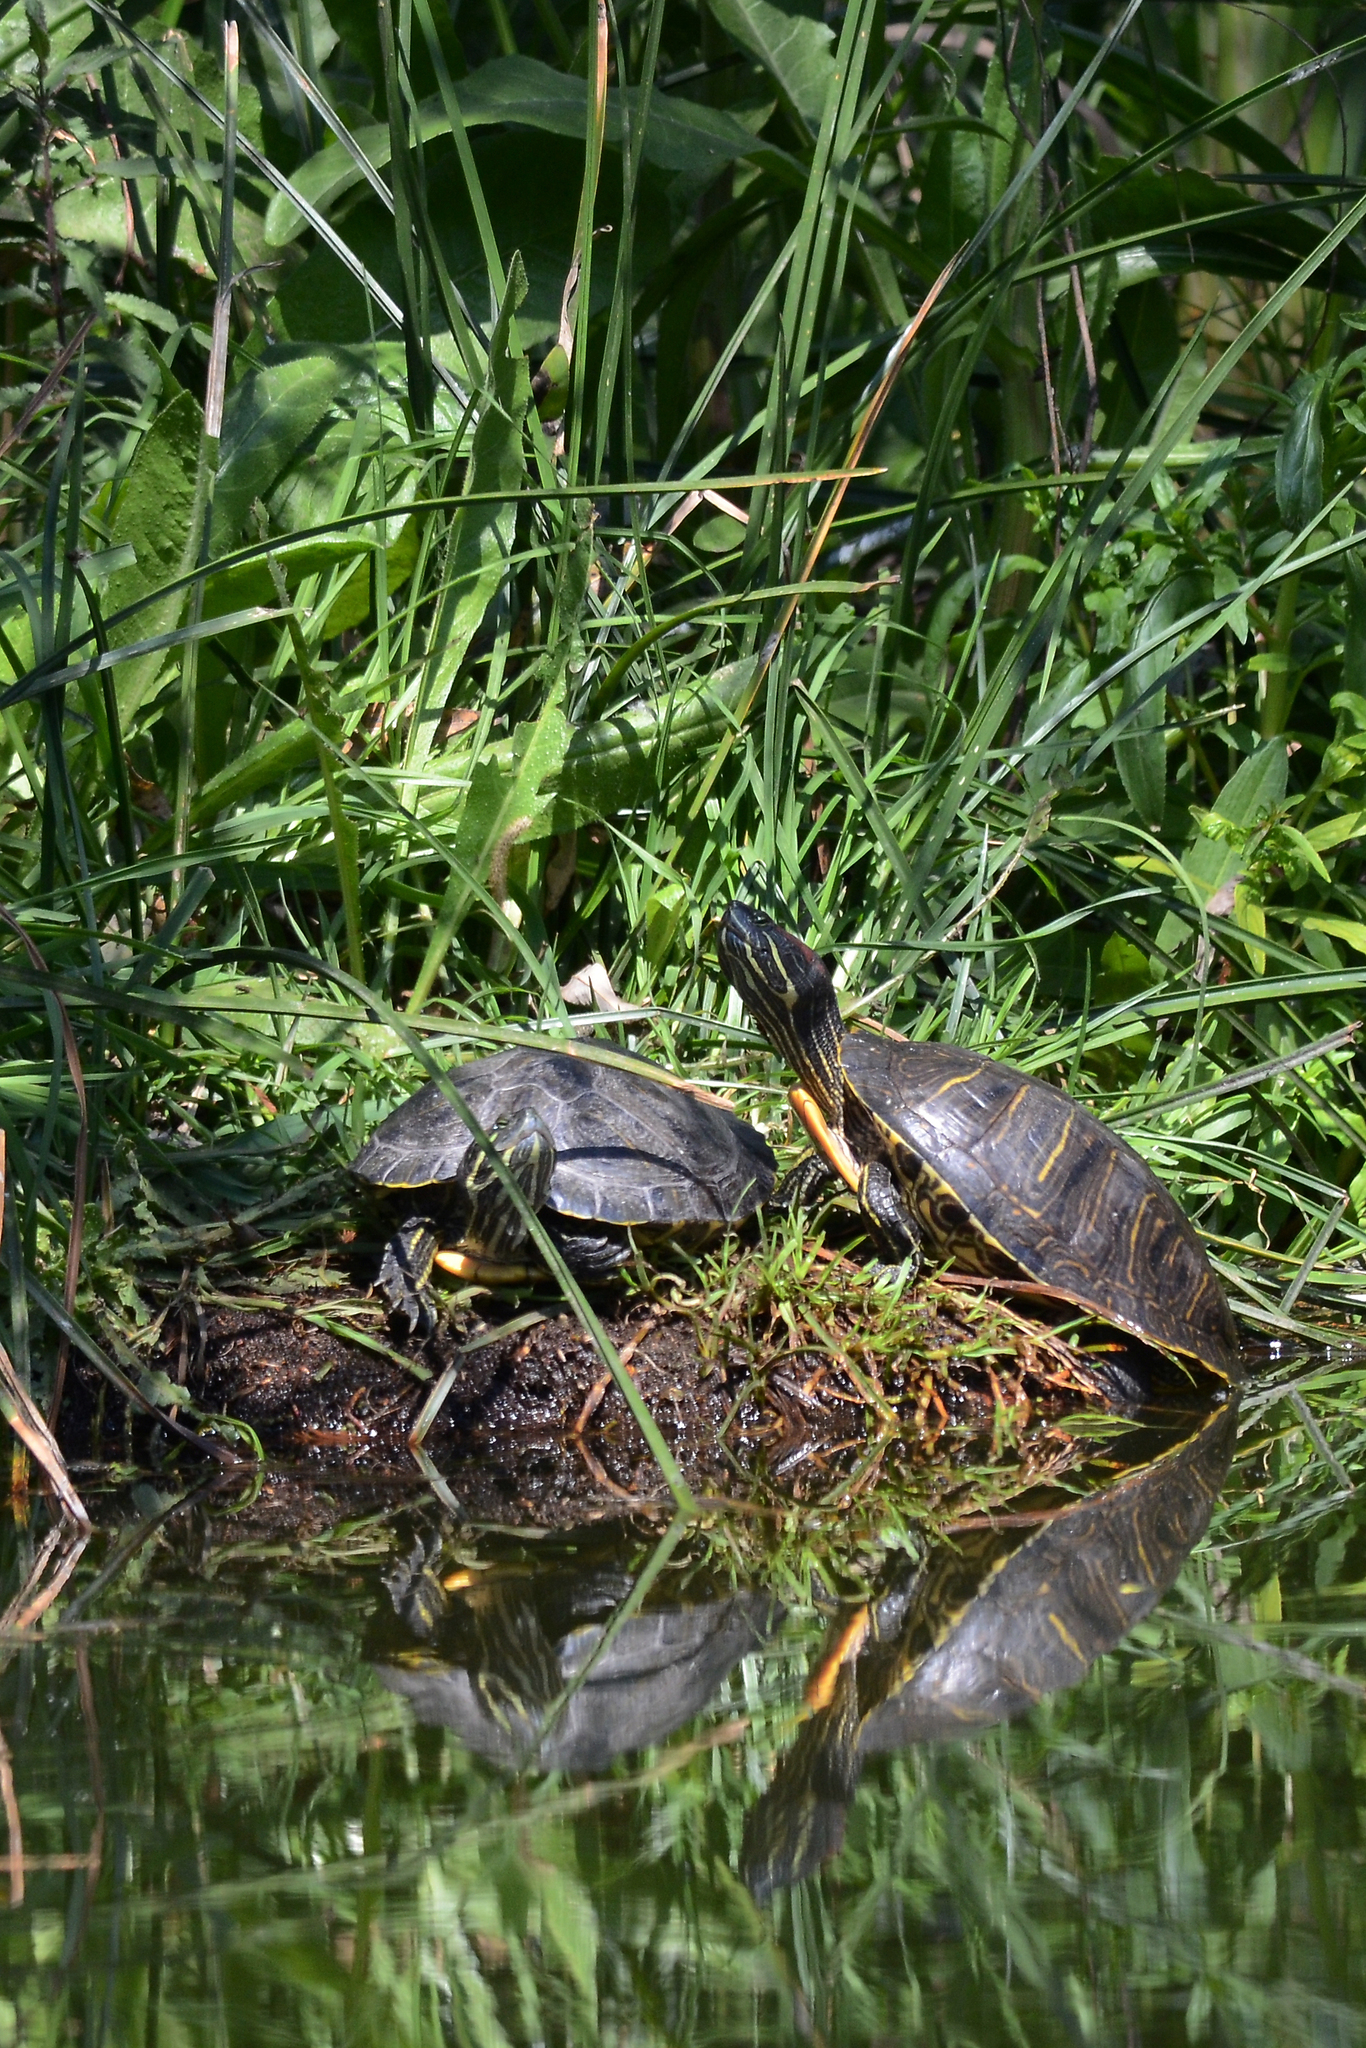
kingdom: Animalia
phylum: Chordata
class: Testudines
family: Emydidae
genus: Trachemys
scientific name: Trachemys scripta
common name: Slider
